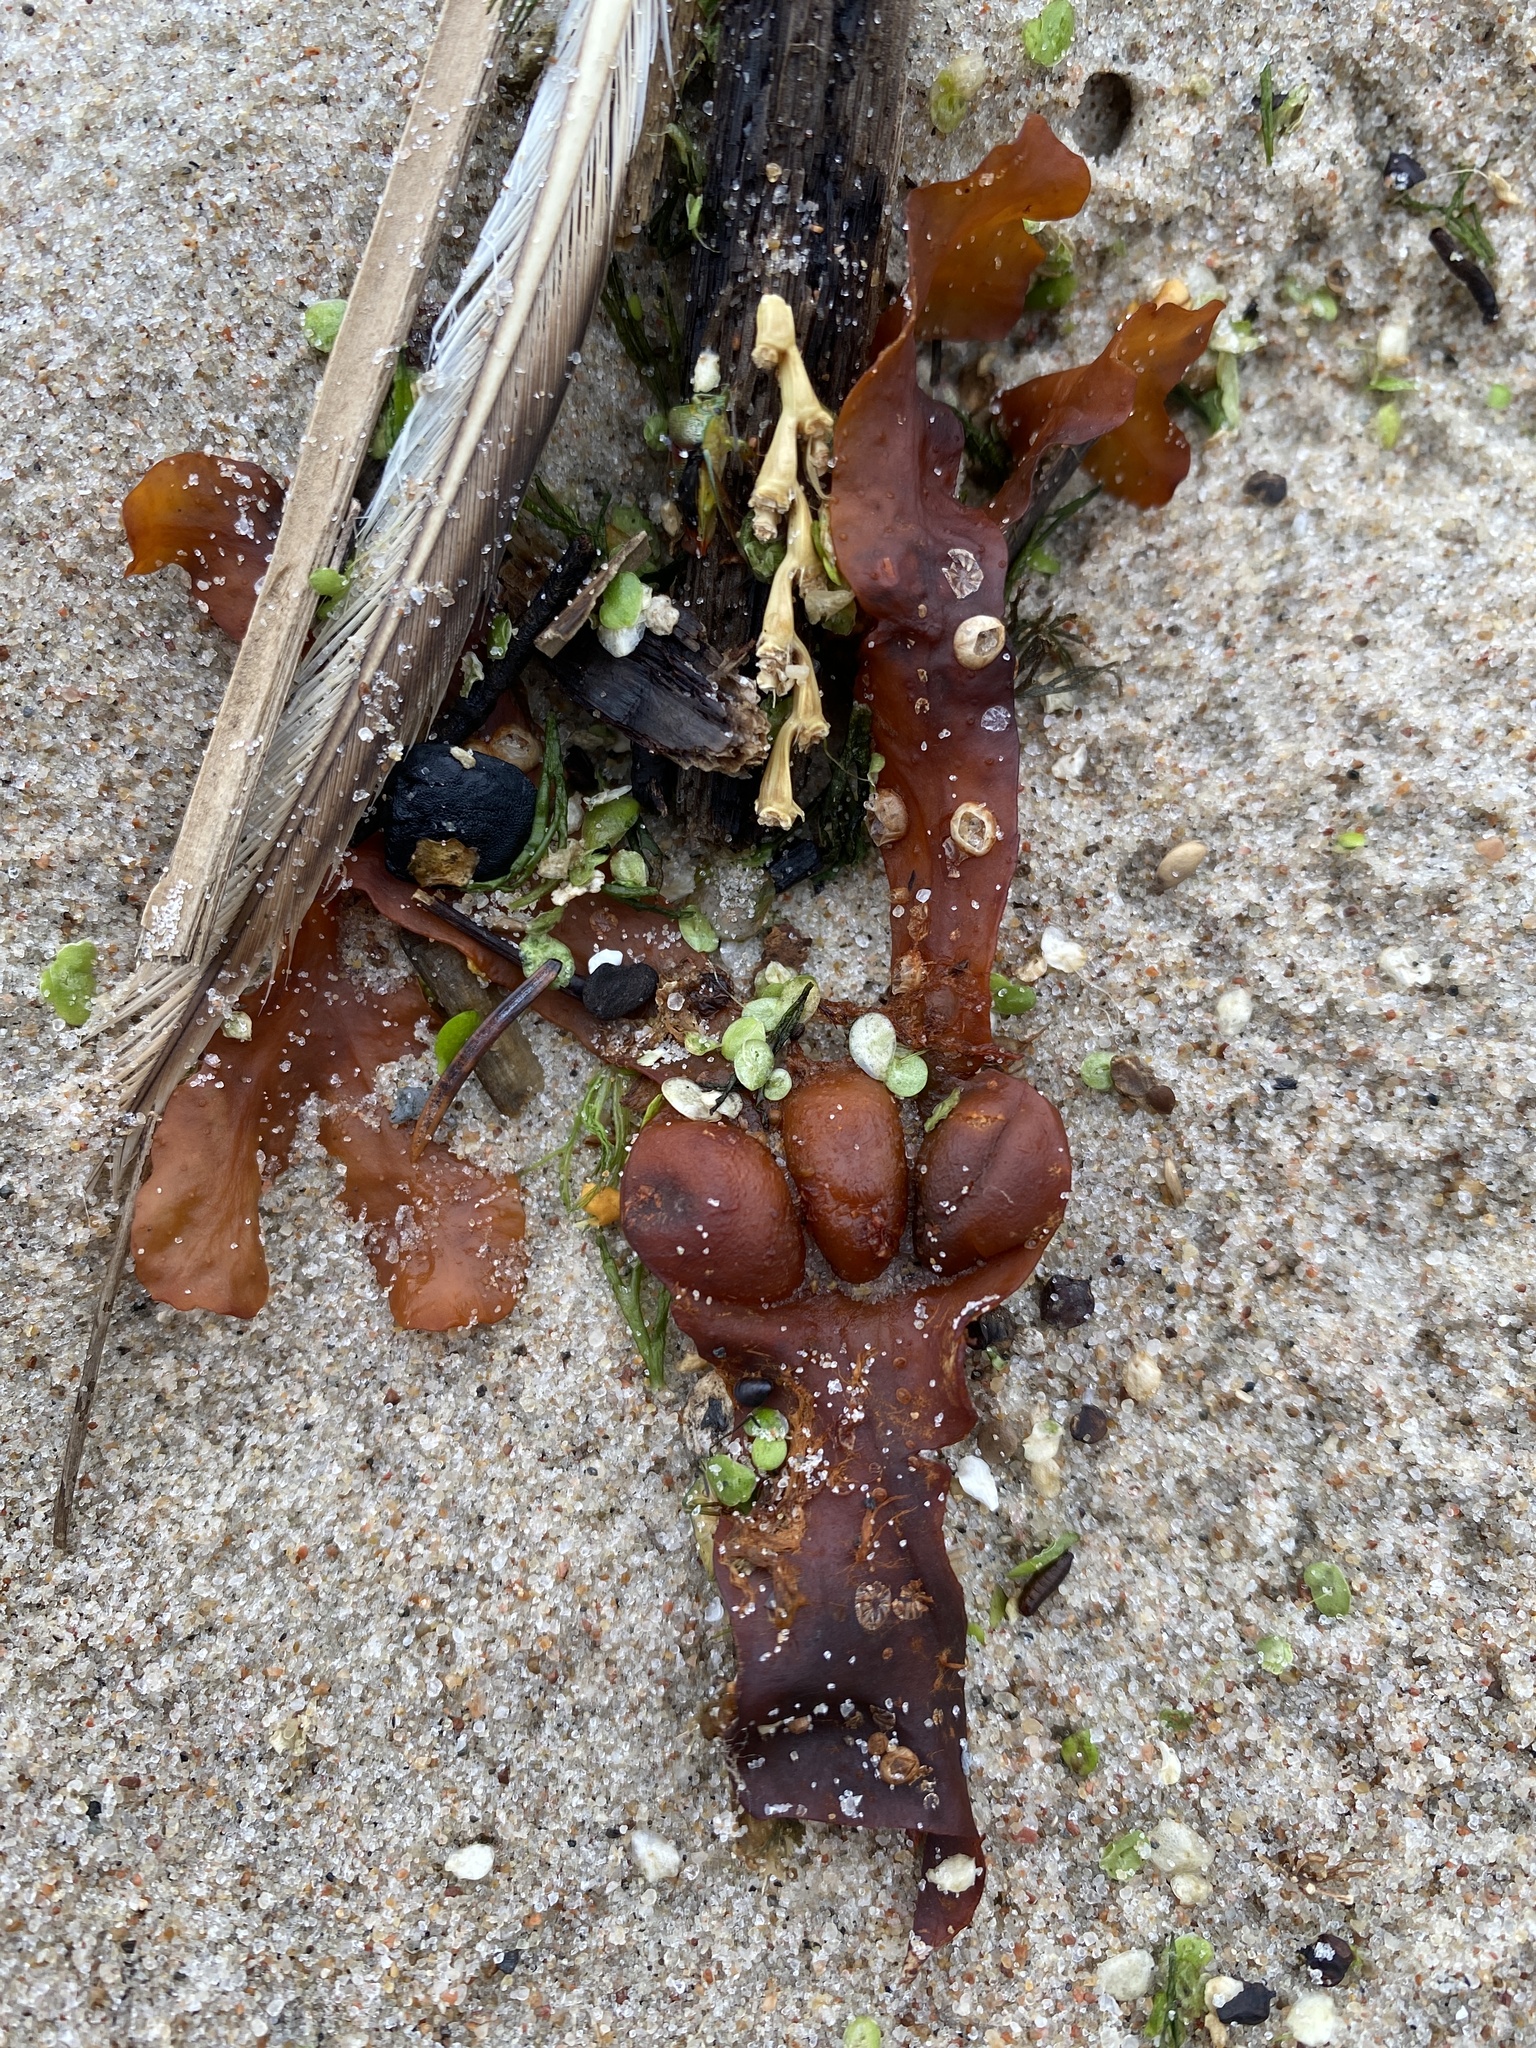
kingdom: Chromista
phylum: Ochrophyta
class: Phaeophyceae
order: Fucales
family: Fucaceae
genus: Fucus
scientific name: Fucus vesiculosus
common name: Bladder wrack
